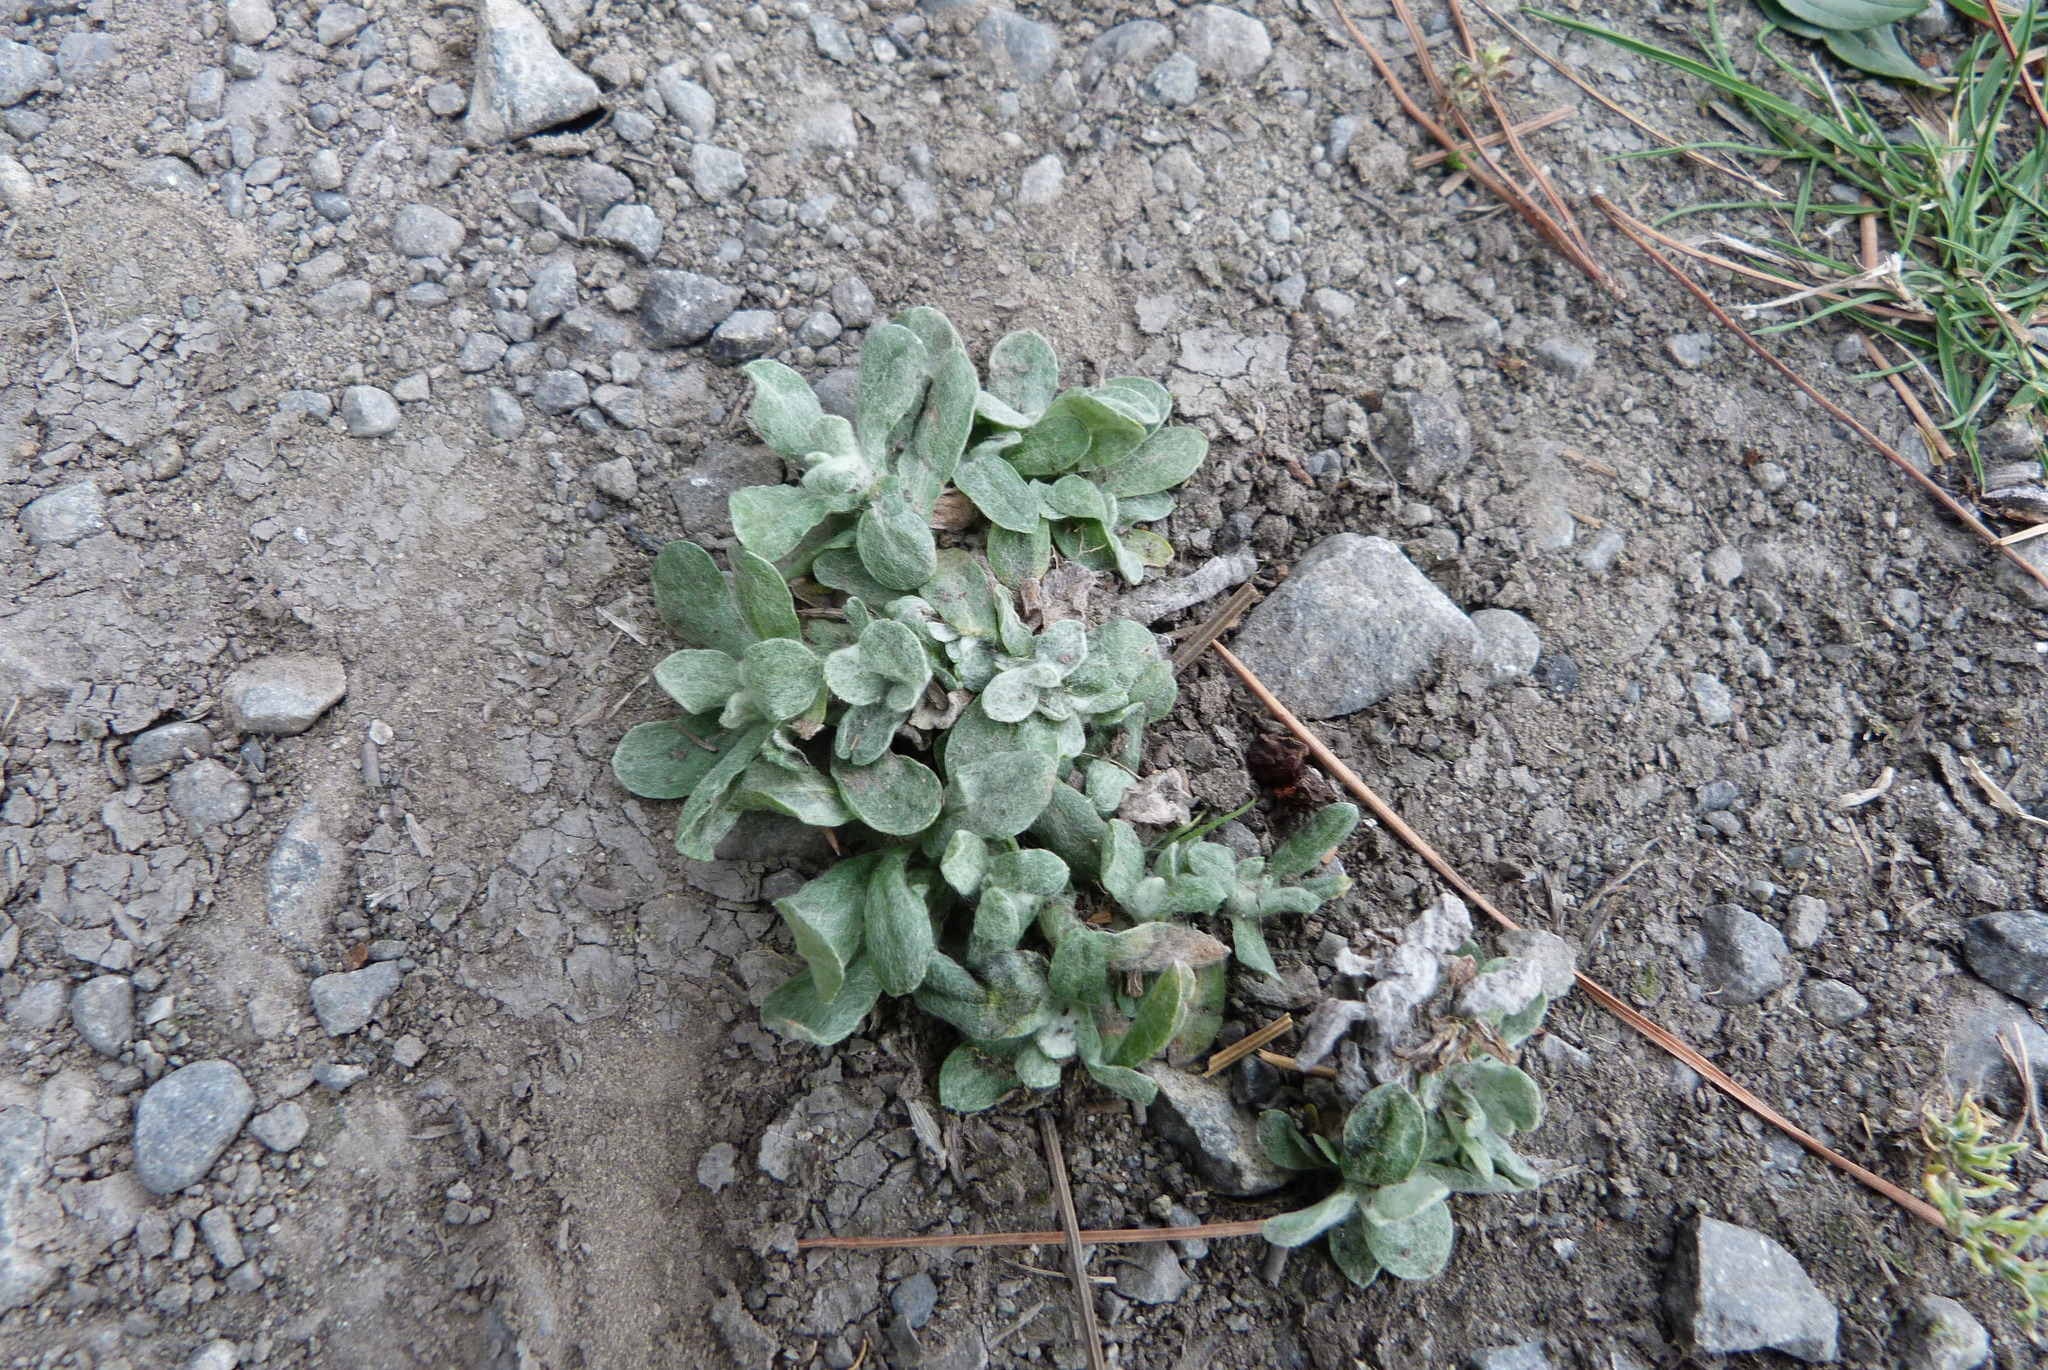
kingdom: Plantae
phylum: Tracheophyta
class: Magnoliopsida
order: Asterales
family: Asteraceae
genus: Helichrysum
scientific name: Helichrysum luteoalbum
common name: Daisy
